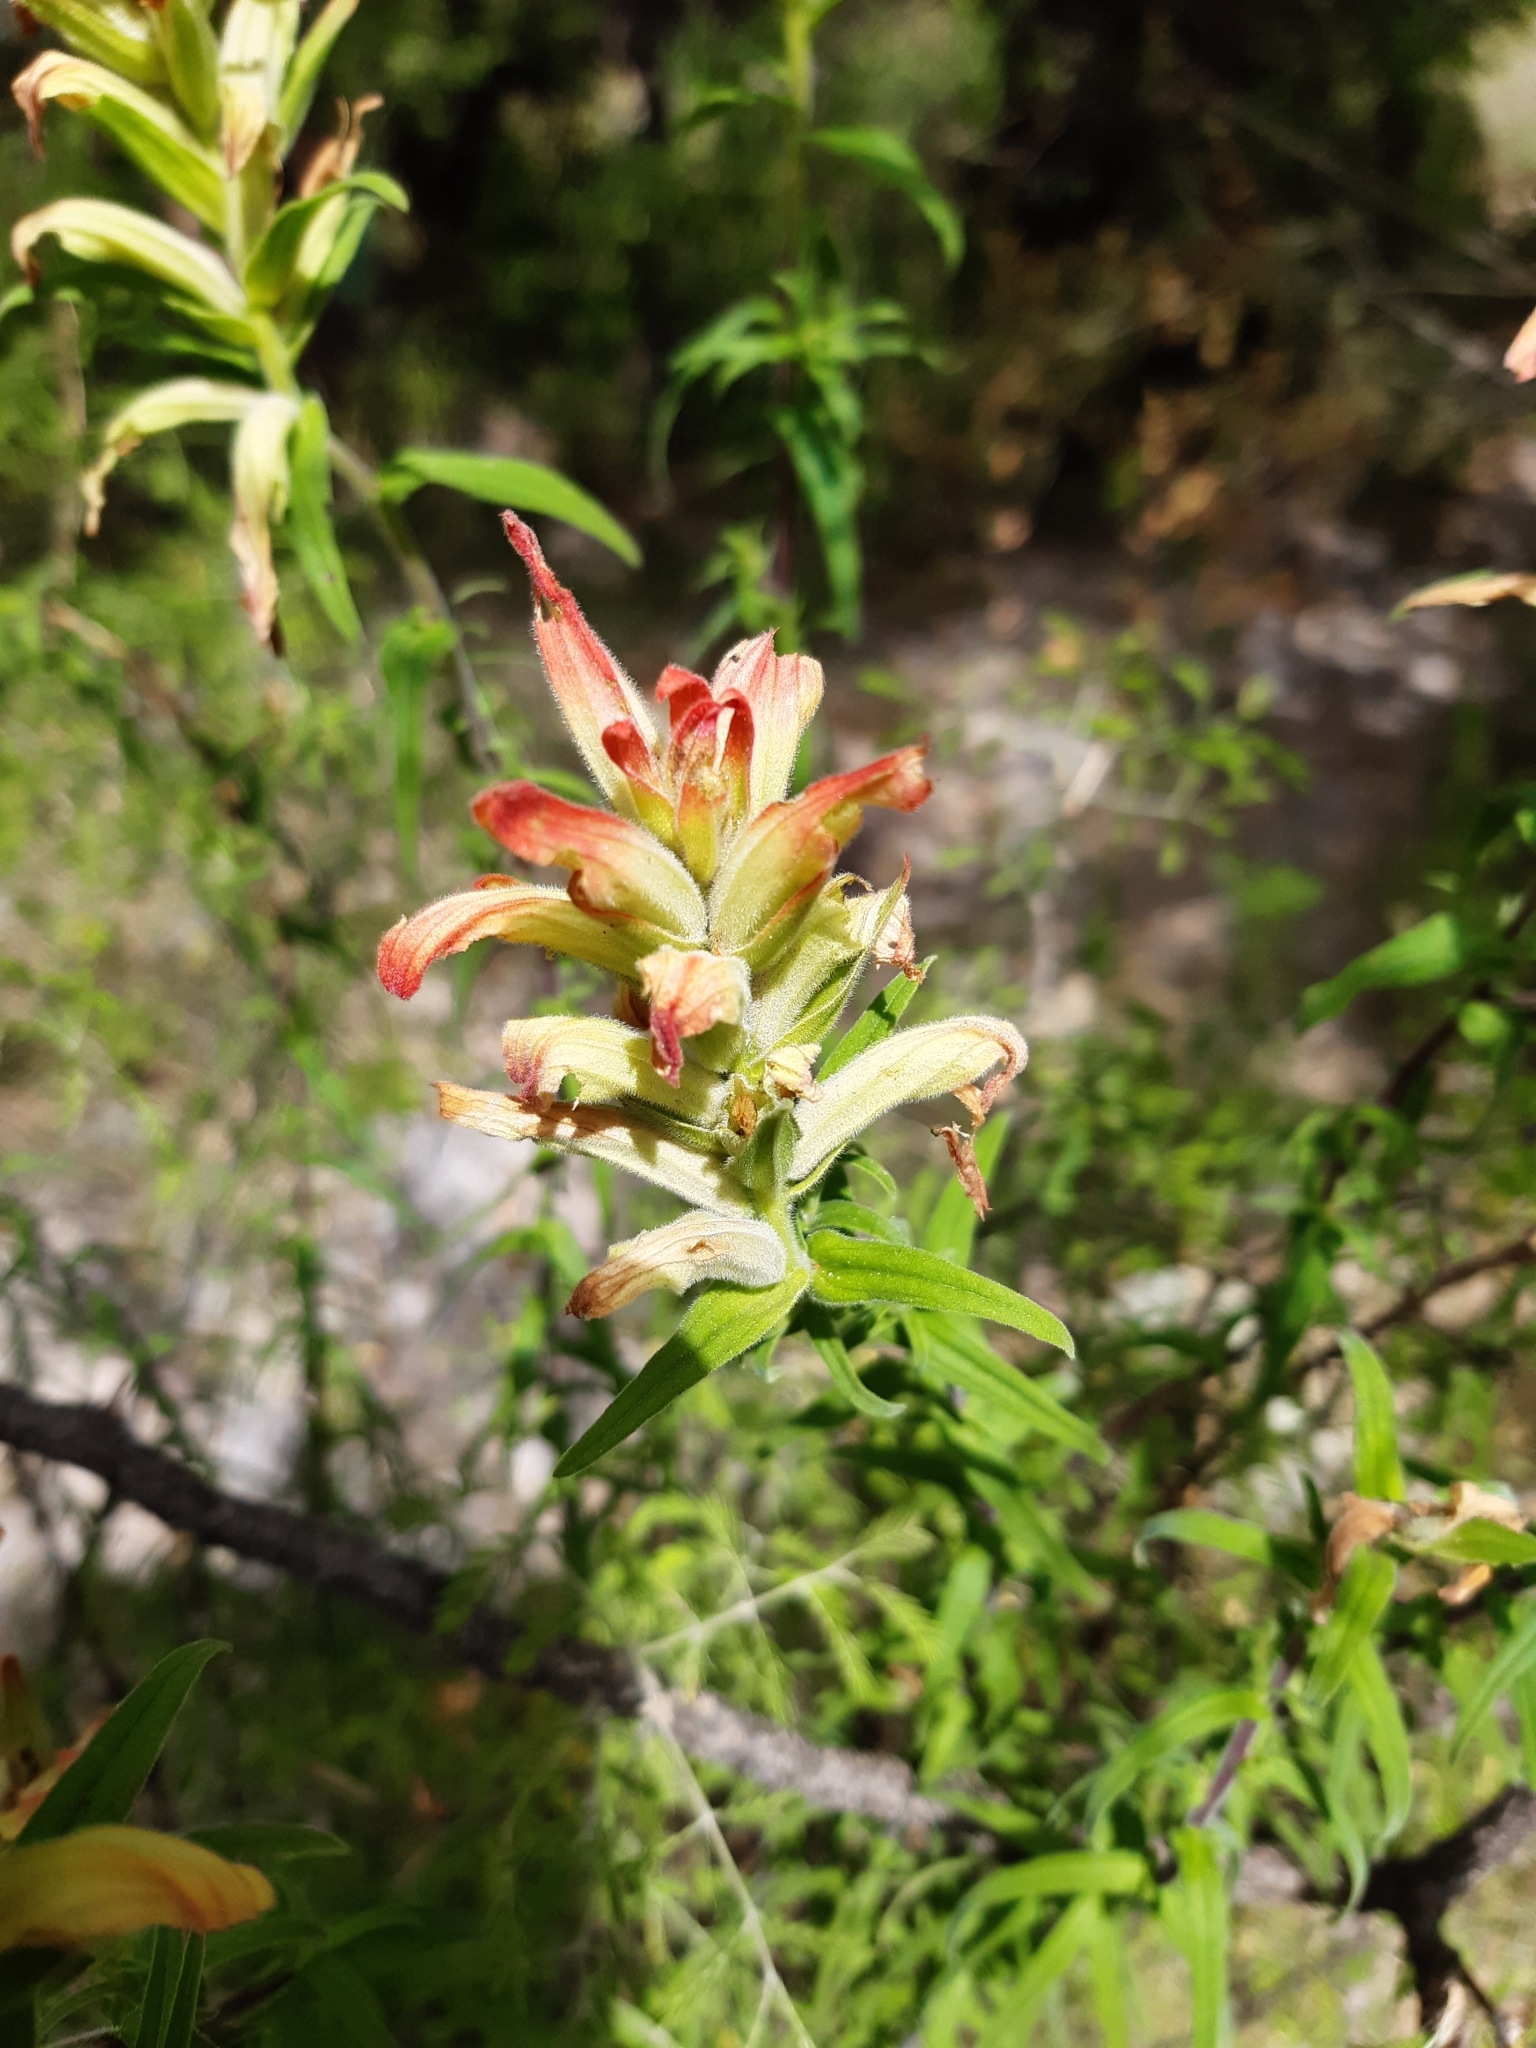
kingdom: Plantae
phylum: Tracheophyta
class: Magnoliopsida
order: Lamiales
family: Orobanchaceae
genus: Castilleja
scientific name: Castilleja tenuiflora
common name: Santa catalina indian paintbrush
